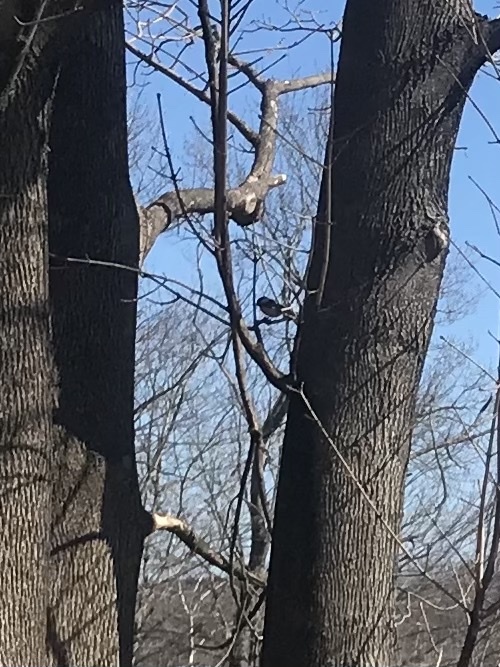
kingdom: Animalia
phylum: Chordata
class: Aves
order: Passeriformes
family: Paridae
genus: Poecile
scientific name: Poecile atricapillus
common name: Black-capped chickadee
